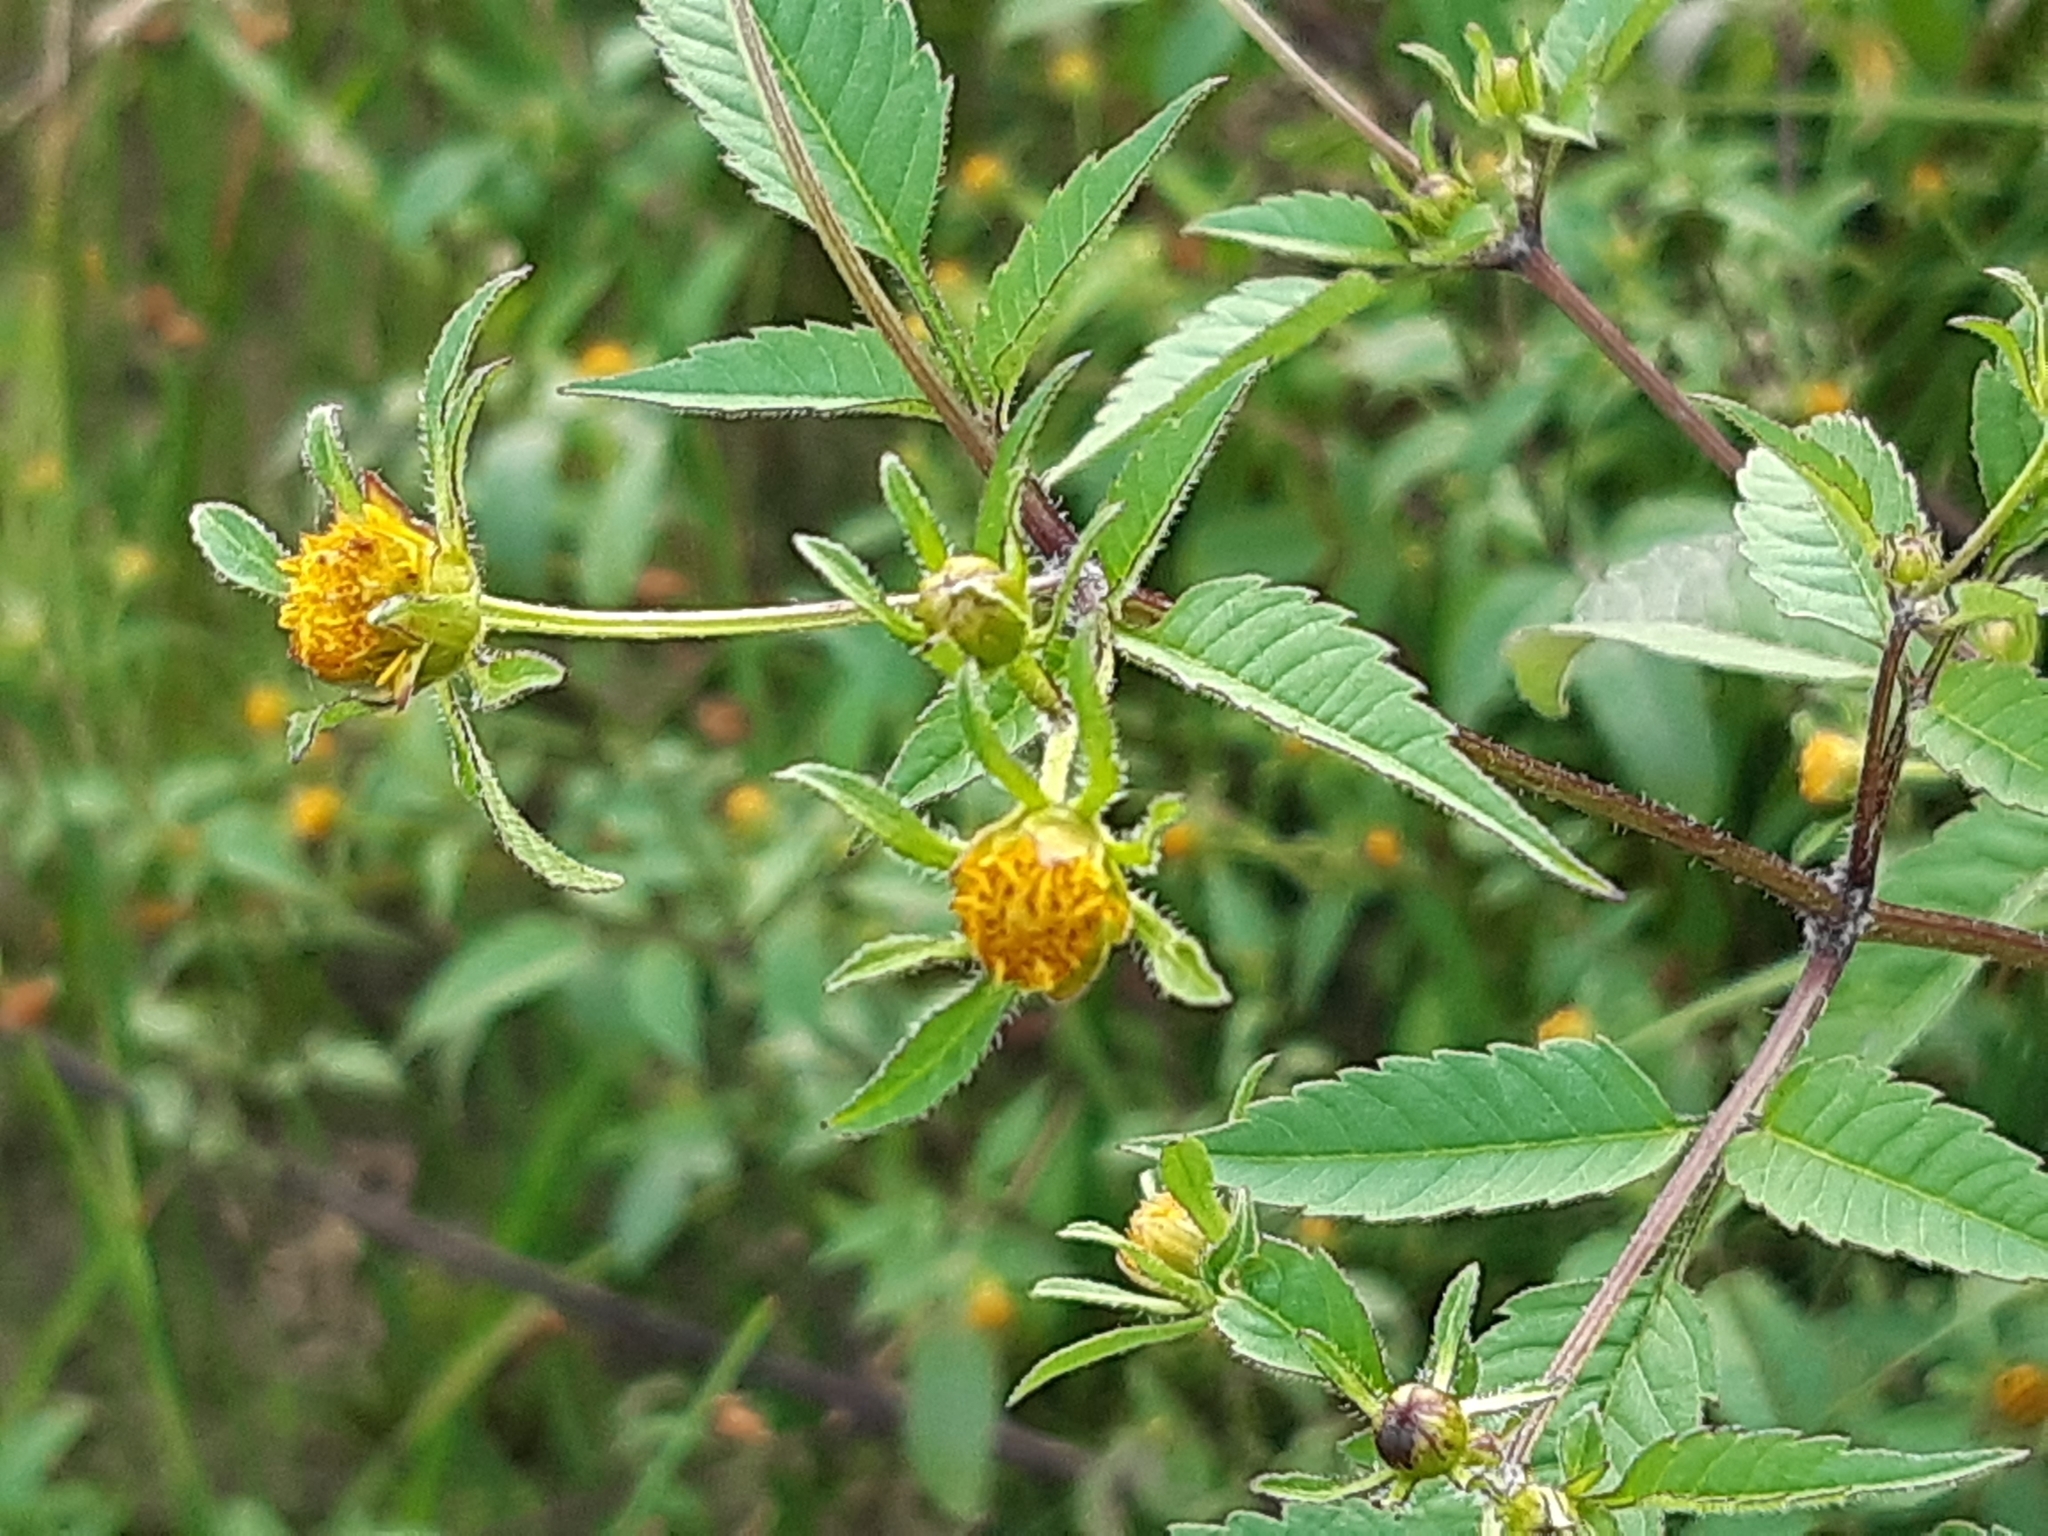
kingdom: Plantae
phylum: Tracheophyta
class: Magnoliopsida
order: Asterales
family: Asteraceae
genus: Bidens
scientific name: Bidens frondosa
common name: Beggarticks
